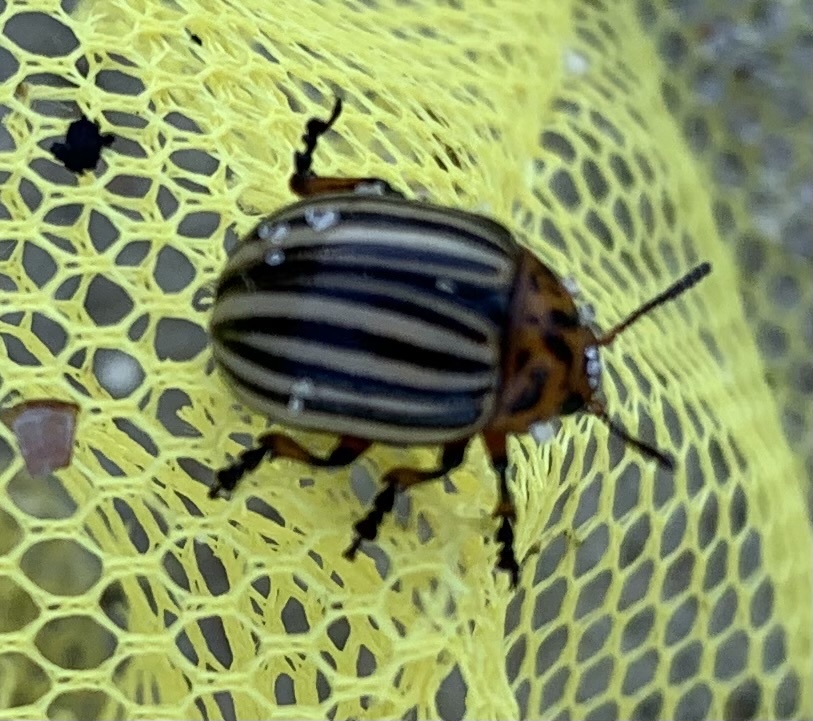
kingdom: Animalia
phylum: Arthropoda
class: Insecta
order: Coleoptera
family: Chrysomelidae
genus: Leptinotarsa
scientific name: Leptinotarsa decemlineata
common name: Colorado potato beetle
